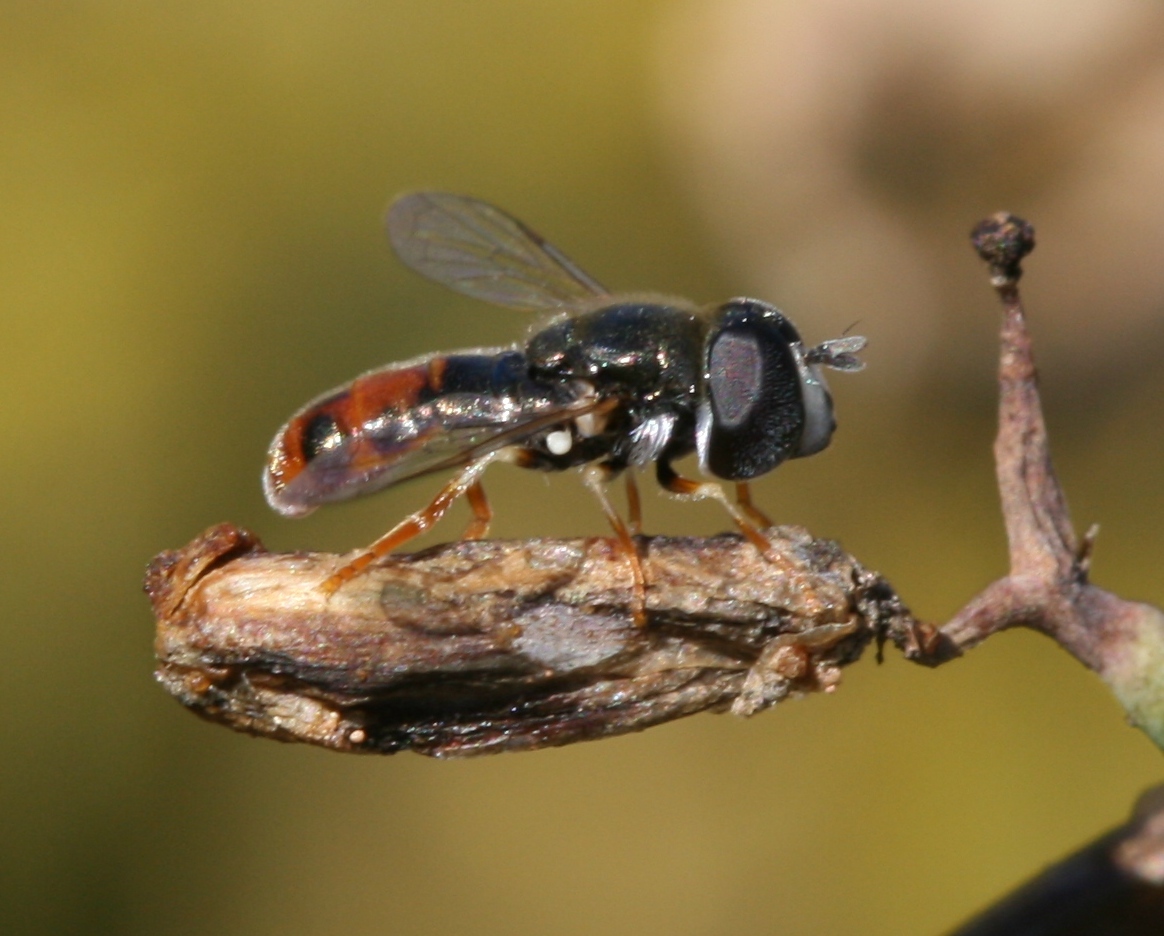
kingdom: Animalia
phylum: Arthropoda
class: Insecta
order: Diptera
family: Syrphidae
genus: Paragus
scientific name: Paragus tibialis
